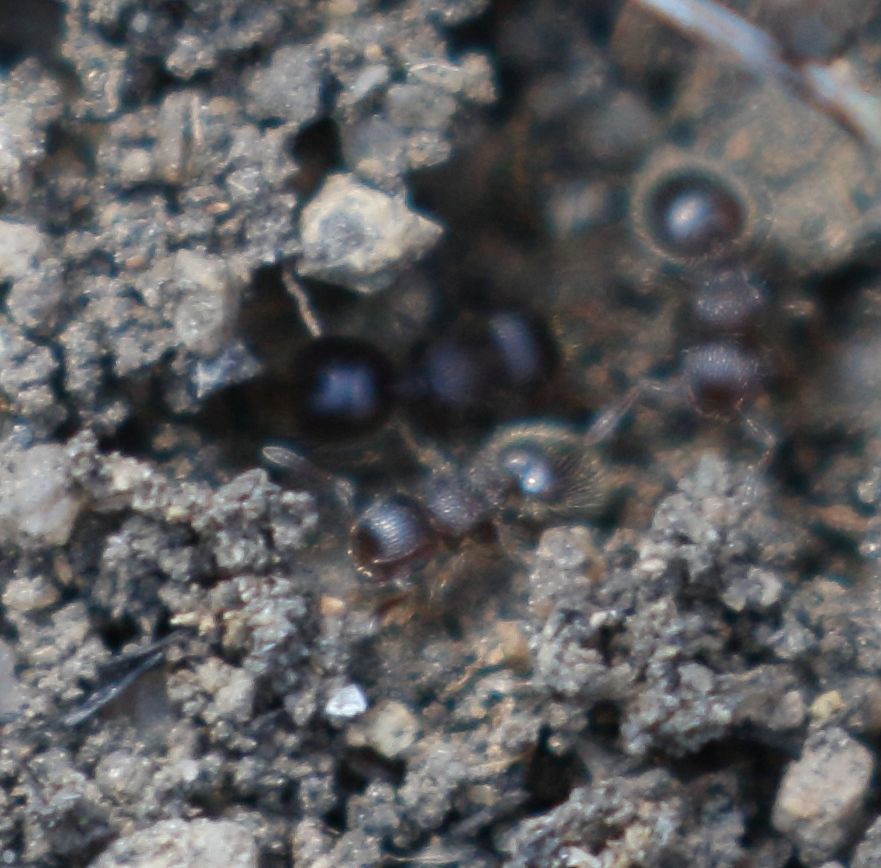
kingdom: Animalia
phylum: Arthropoda
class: Insecta
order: Hymenoptera
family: Formicidae
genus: Meranoplus
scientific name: Meranoplus peringueyi
